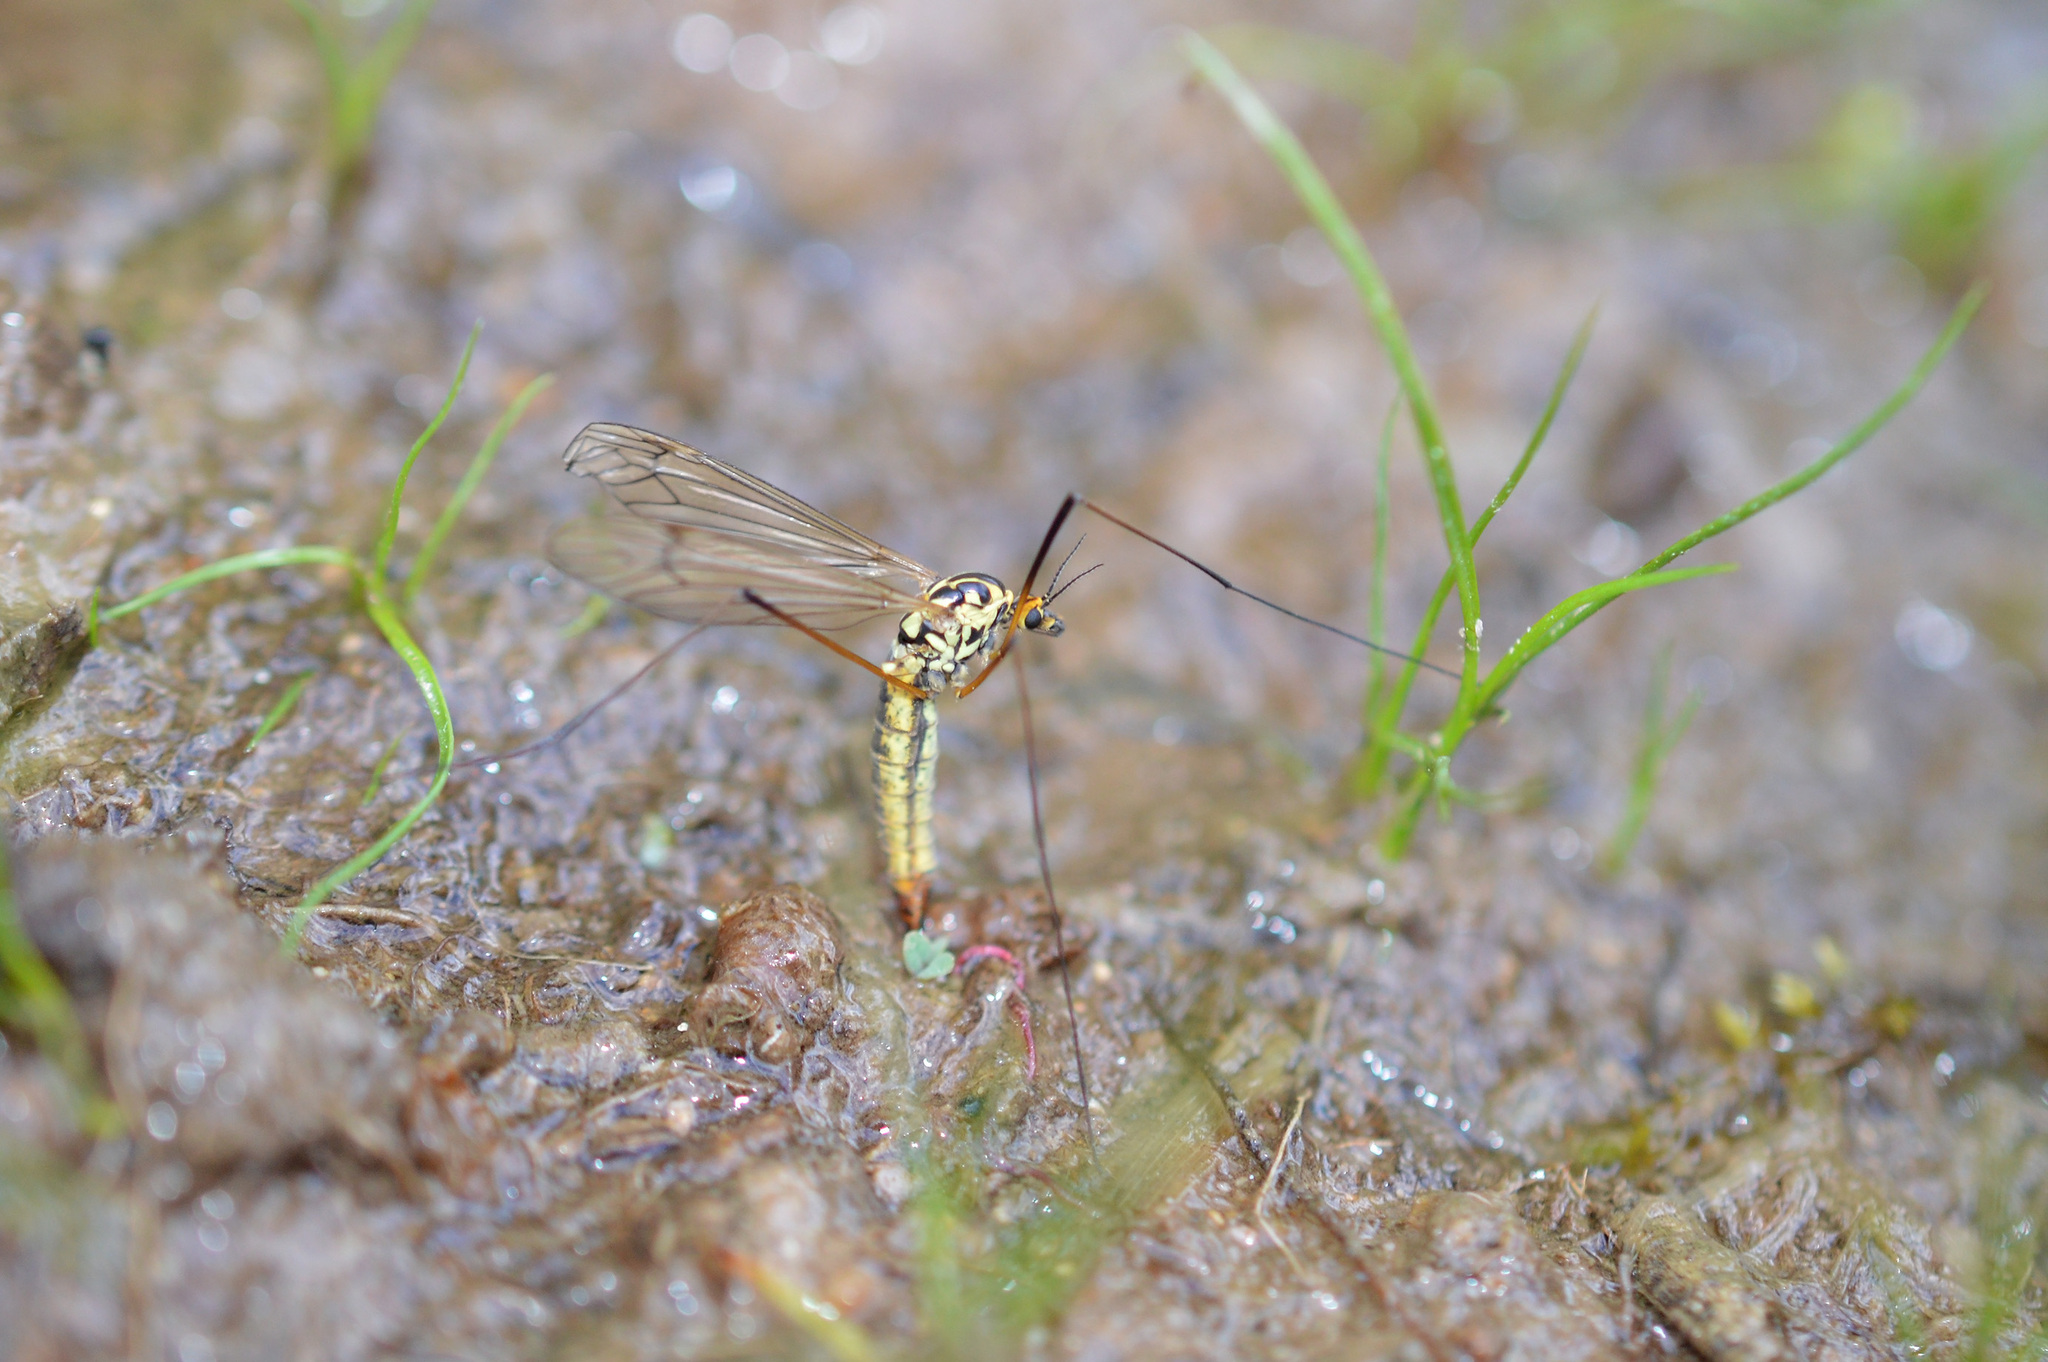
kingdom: Animalia
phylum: Arthropoda
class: Insecta
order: Diptera
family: Tipulidae
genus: Nephrotoma
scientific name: Nephrotoma appendiculata
